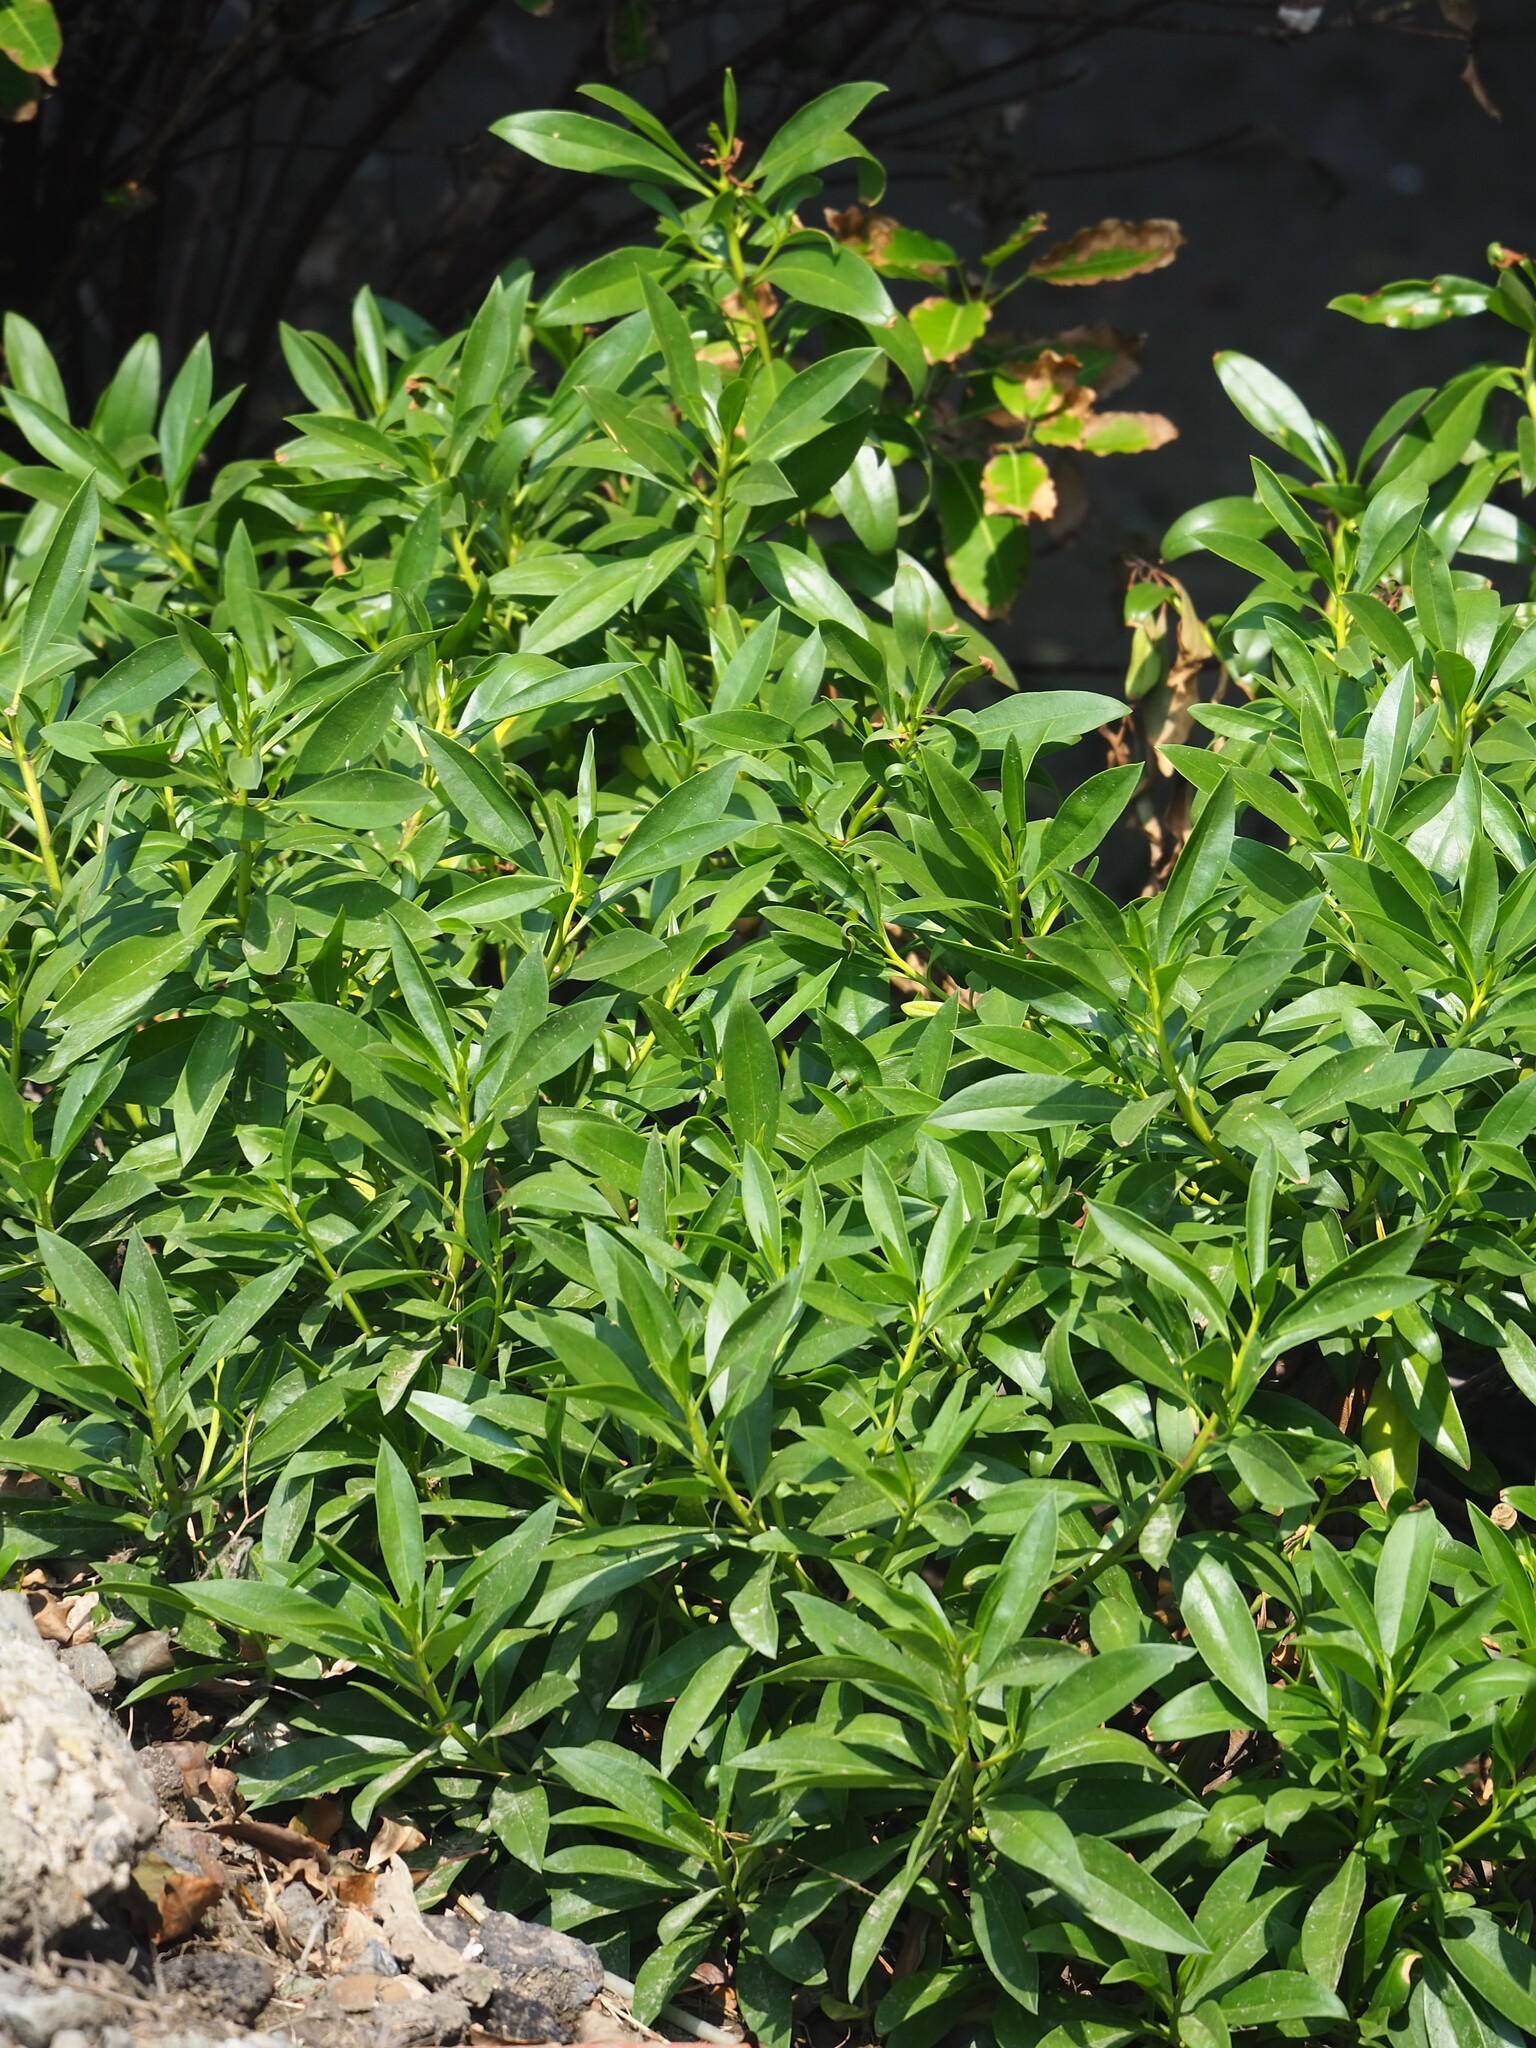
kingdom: Plantae
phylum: Tracheophyta
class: Magnoliopsida
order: Lamiales
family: Scrophulariaceae
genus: Myoporum
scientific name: Myoporum bontioides
